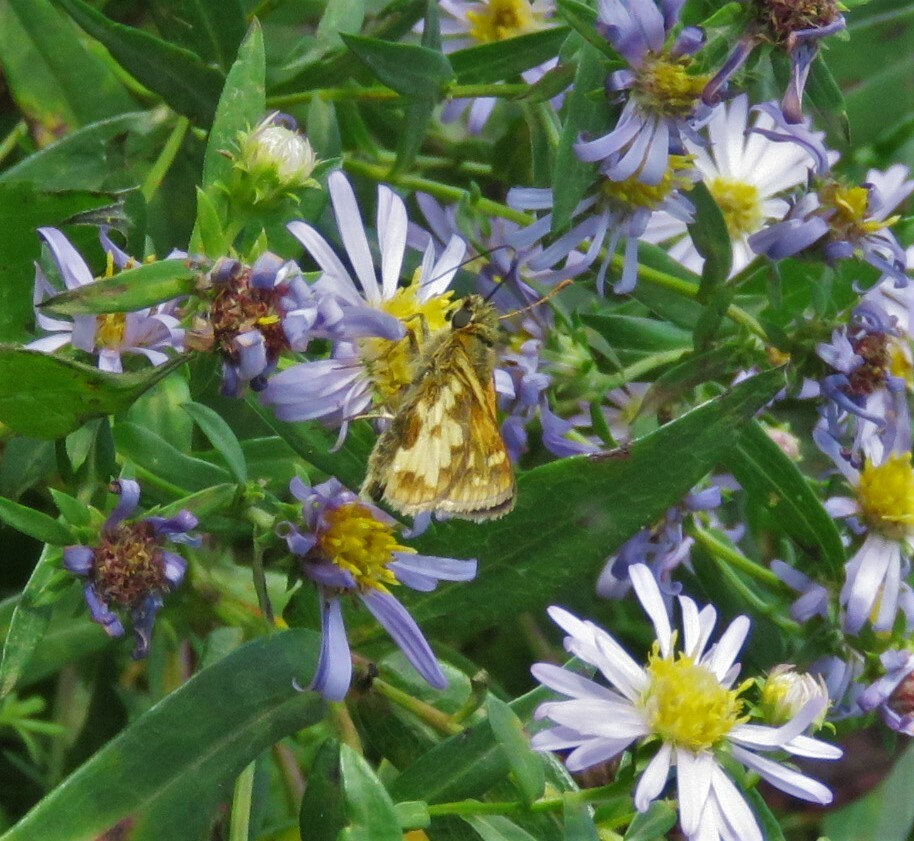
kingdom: Animalia
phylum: Arthropoda
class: Insecta
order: Lepidoptera
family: Hesperiidae
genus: Polites
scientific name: Polites coras
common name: Peck's skipper
